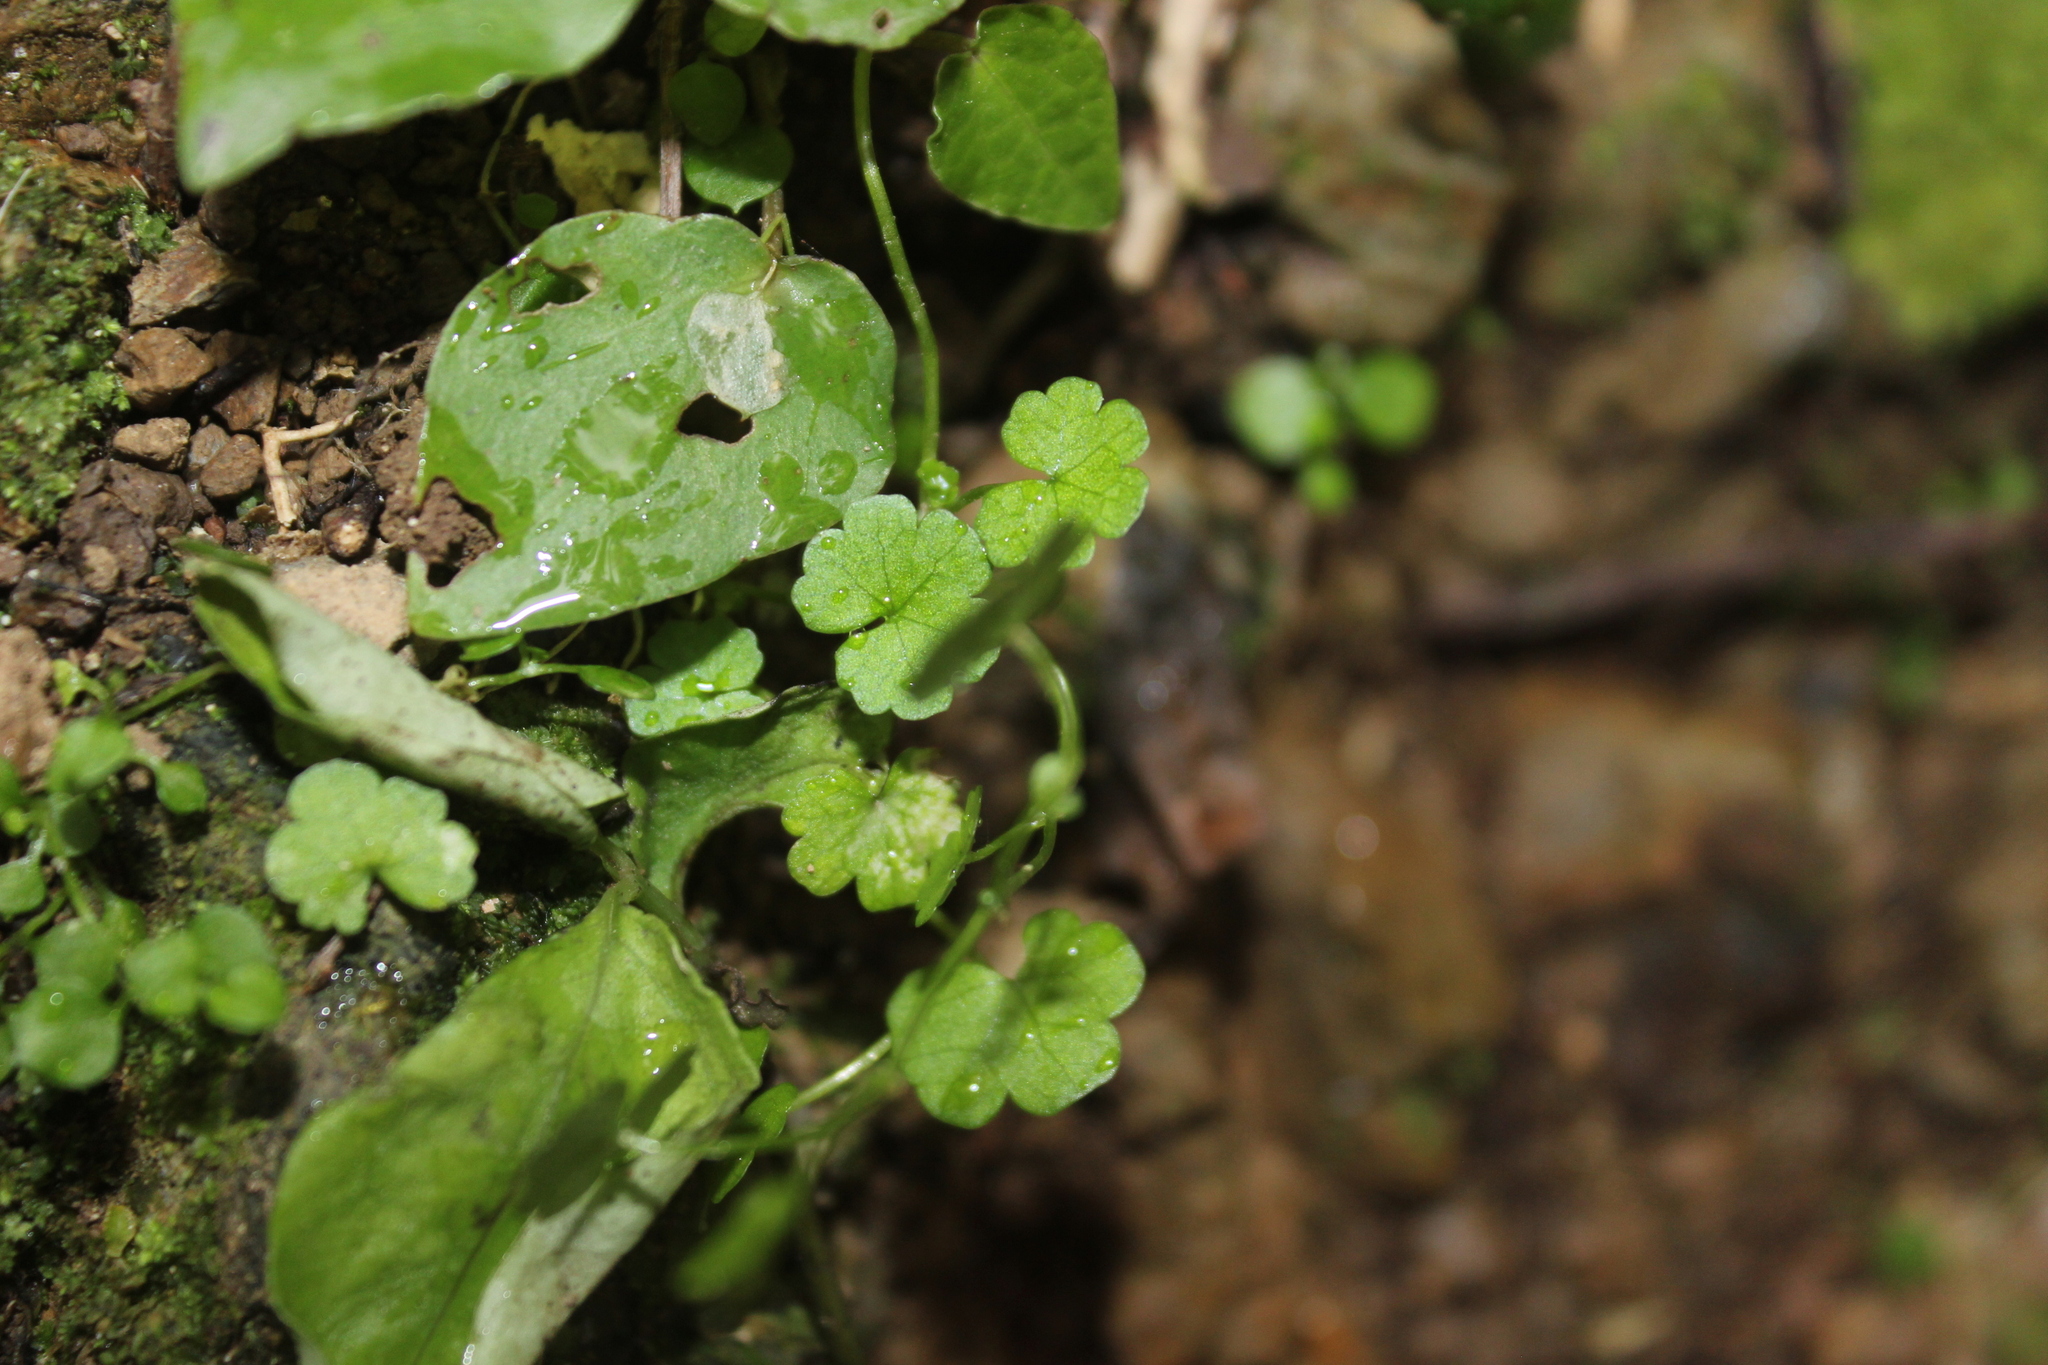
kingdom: Plantae
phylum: Tracheophyta
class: Magnoliopsida
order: Apiales
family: Araliaceae
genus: Hydrocotyle
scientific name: Hydrocotyle heteromeria
